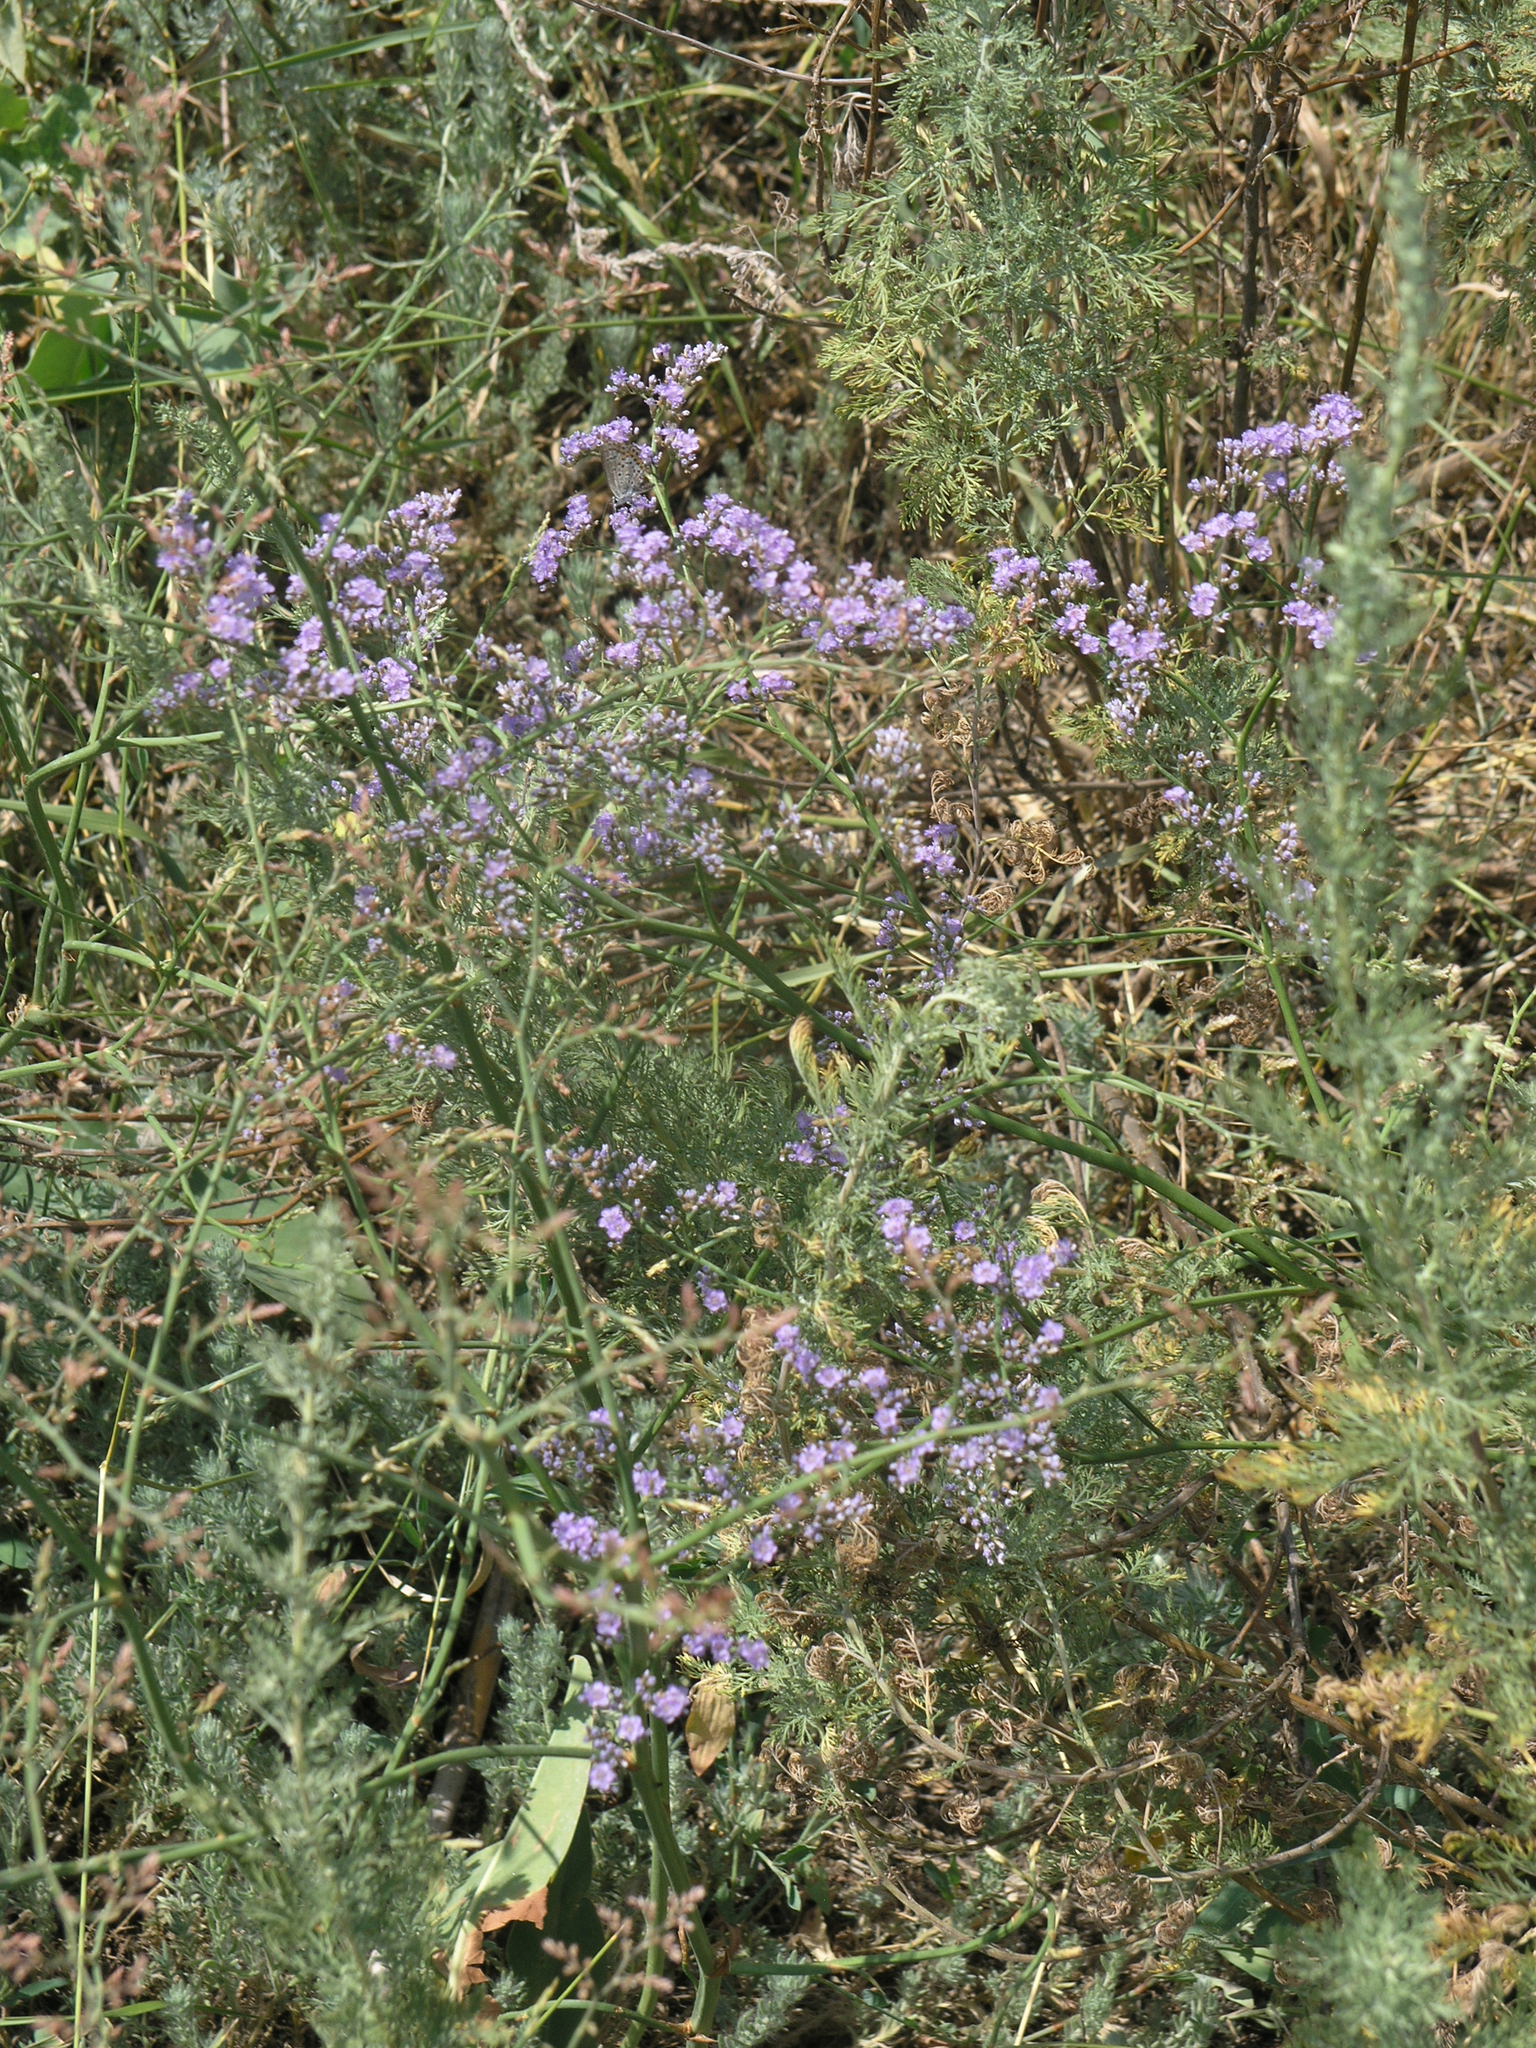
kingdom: Plantae
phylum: Tracheophyta
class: Magnoliopsida
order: Caryophyllales
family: Plumbaginaceae
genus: Limonium
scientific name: Limonium gmelini
